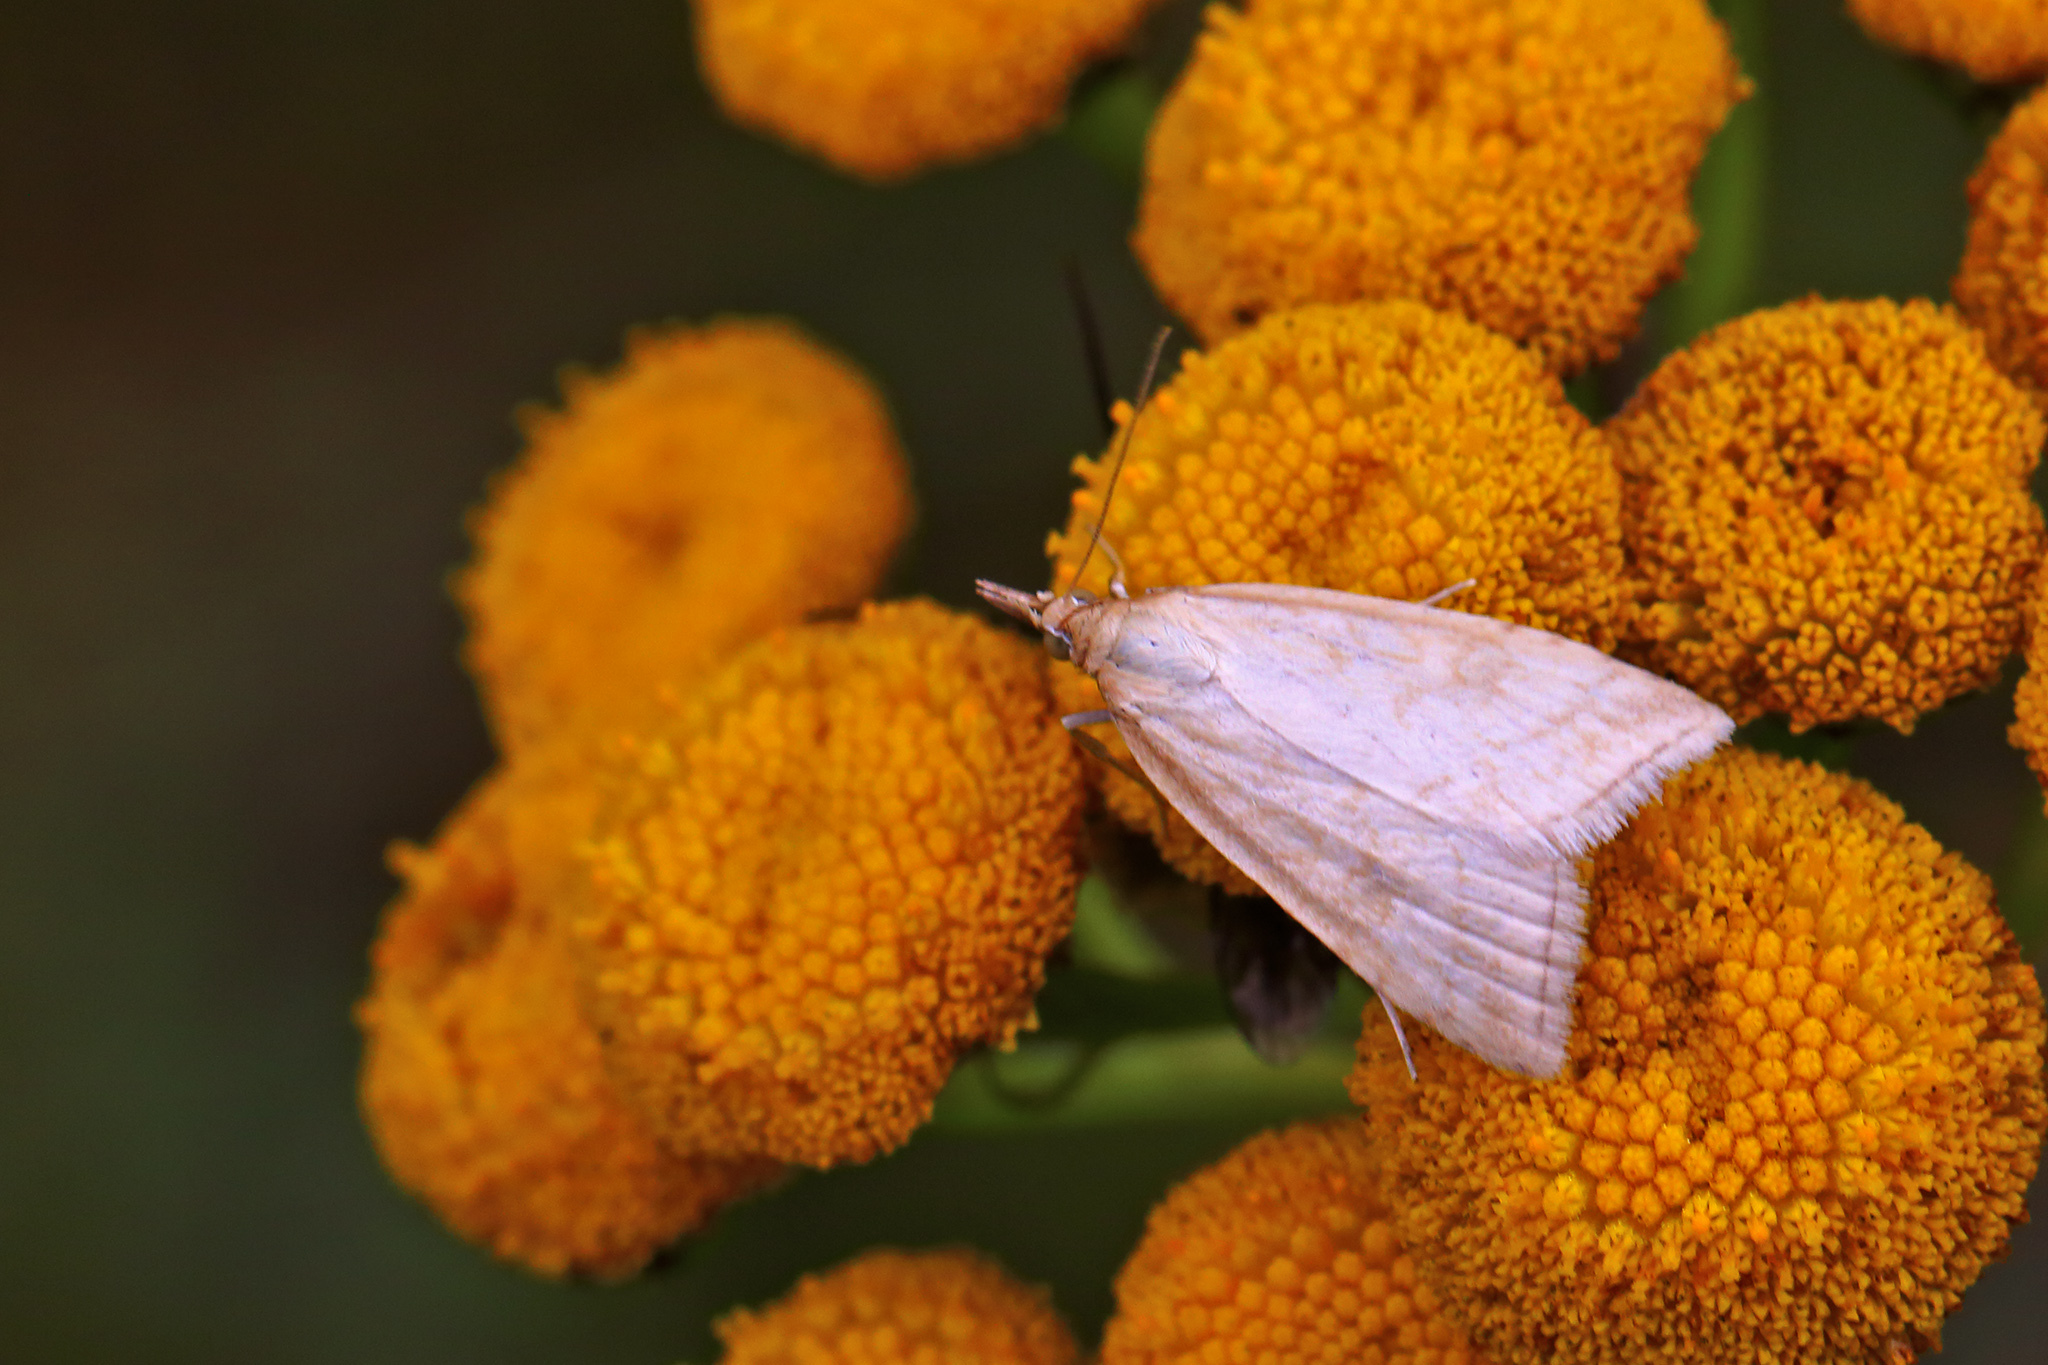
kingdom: Animalia
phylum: Arthropoda
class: Insecta
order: Lepidoptera
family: Crambidae
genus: Udea
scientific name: Udea lutealis
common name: Pale straw pearl
